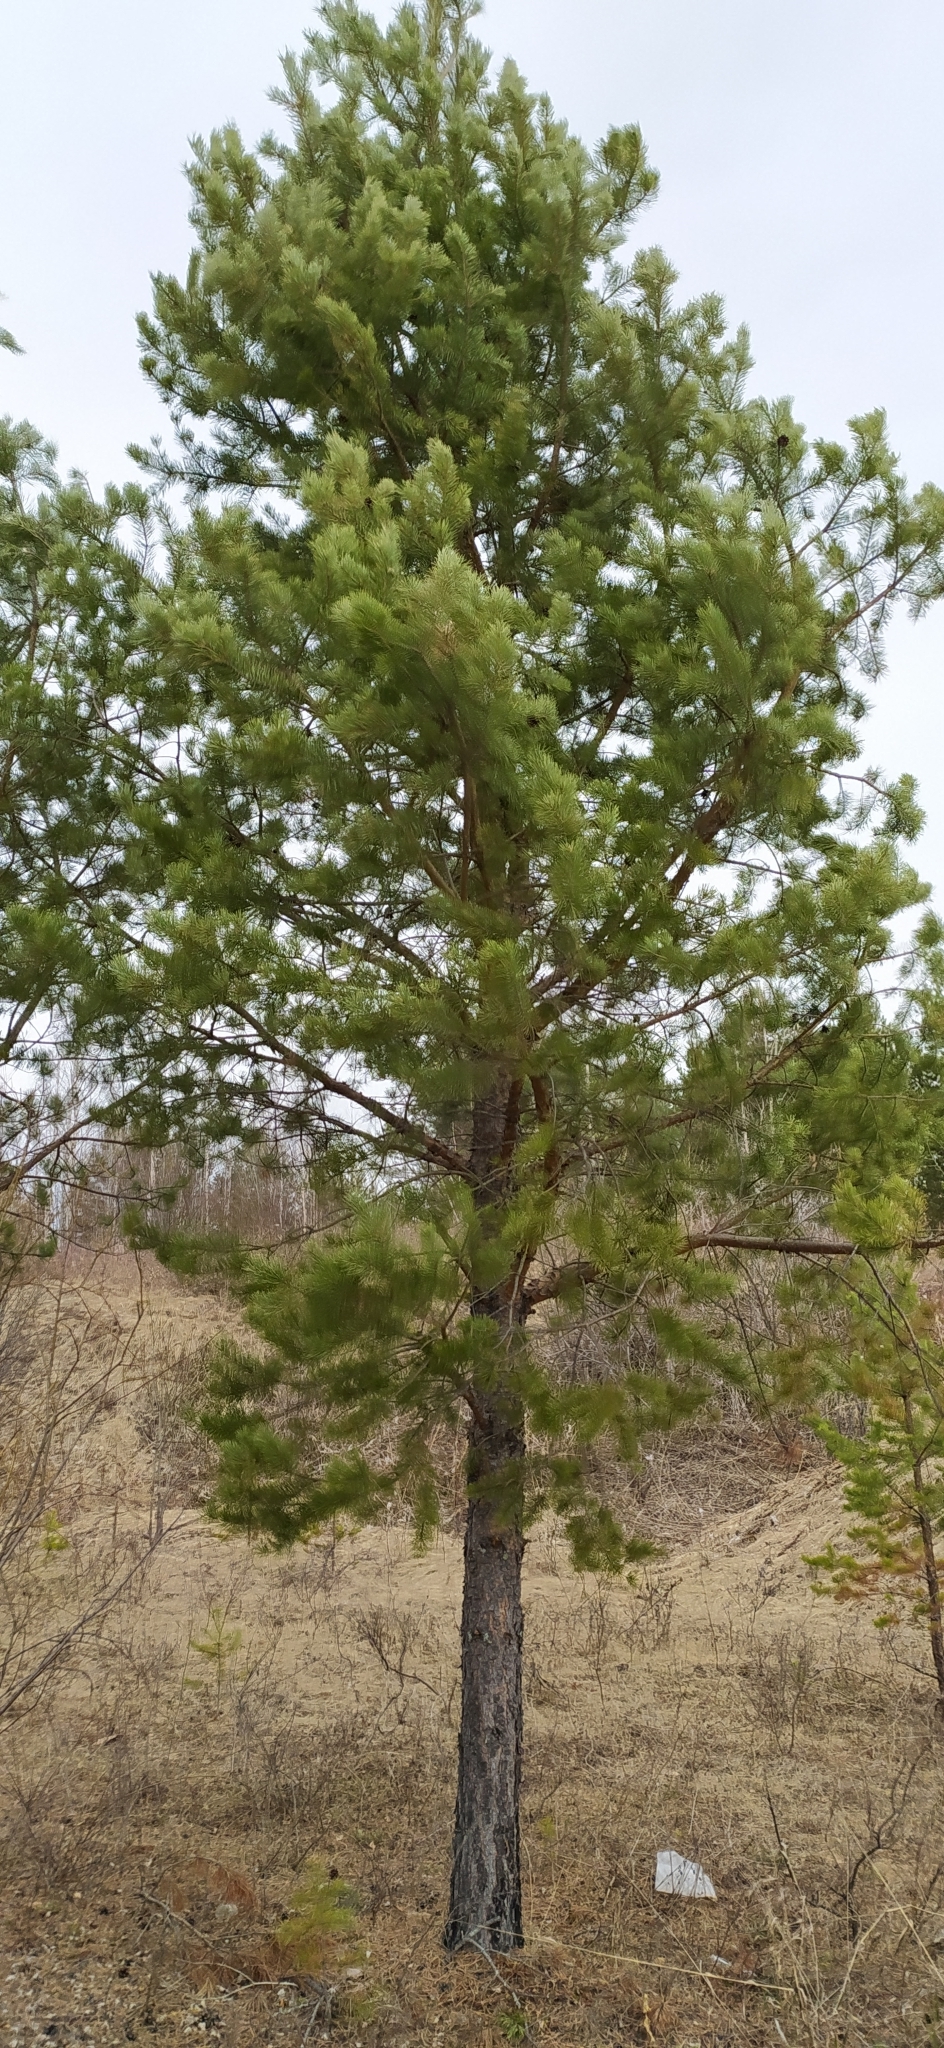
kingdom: Plantae
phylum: Tracheophyta
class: Pinopsida
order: Pinales
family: Pinaceae
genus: Pinus
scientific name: Pinus sylvestris
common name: Scots pine
